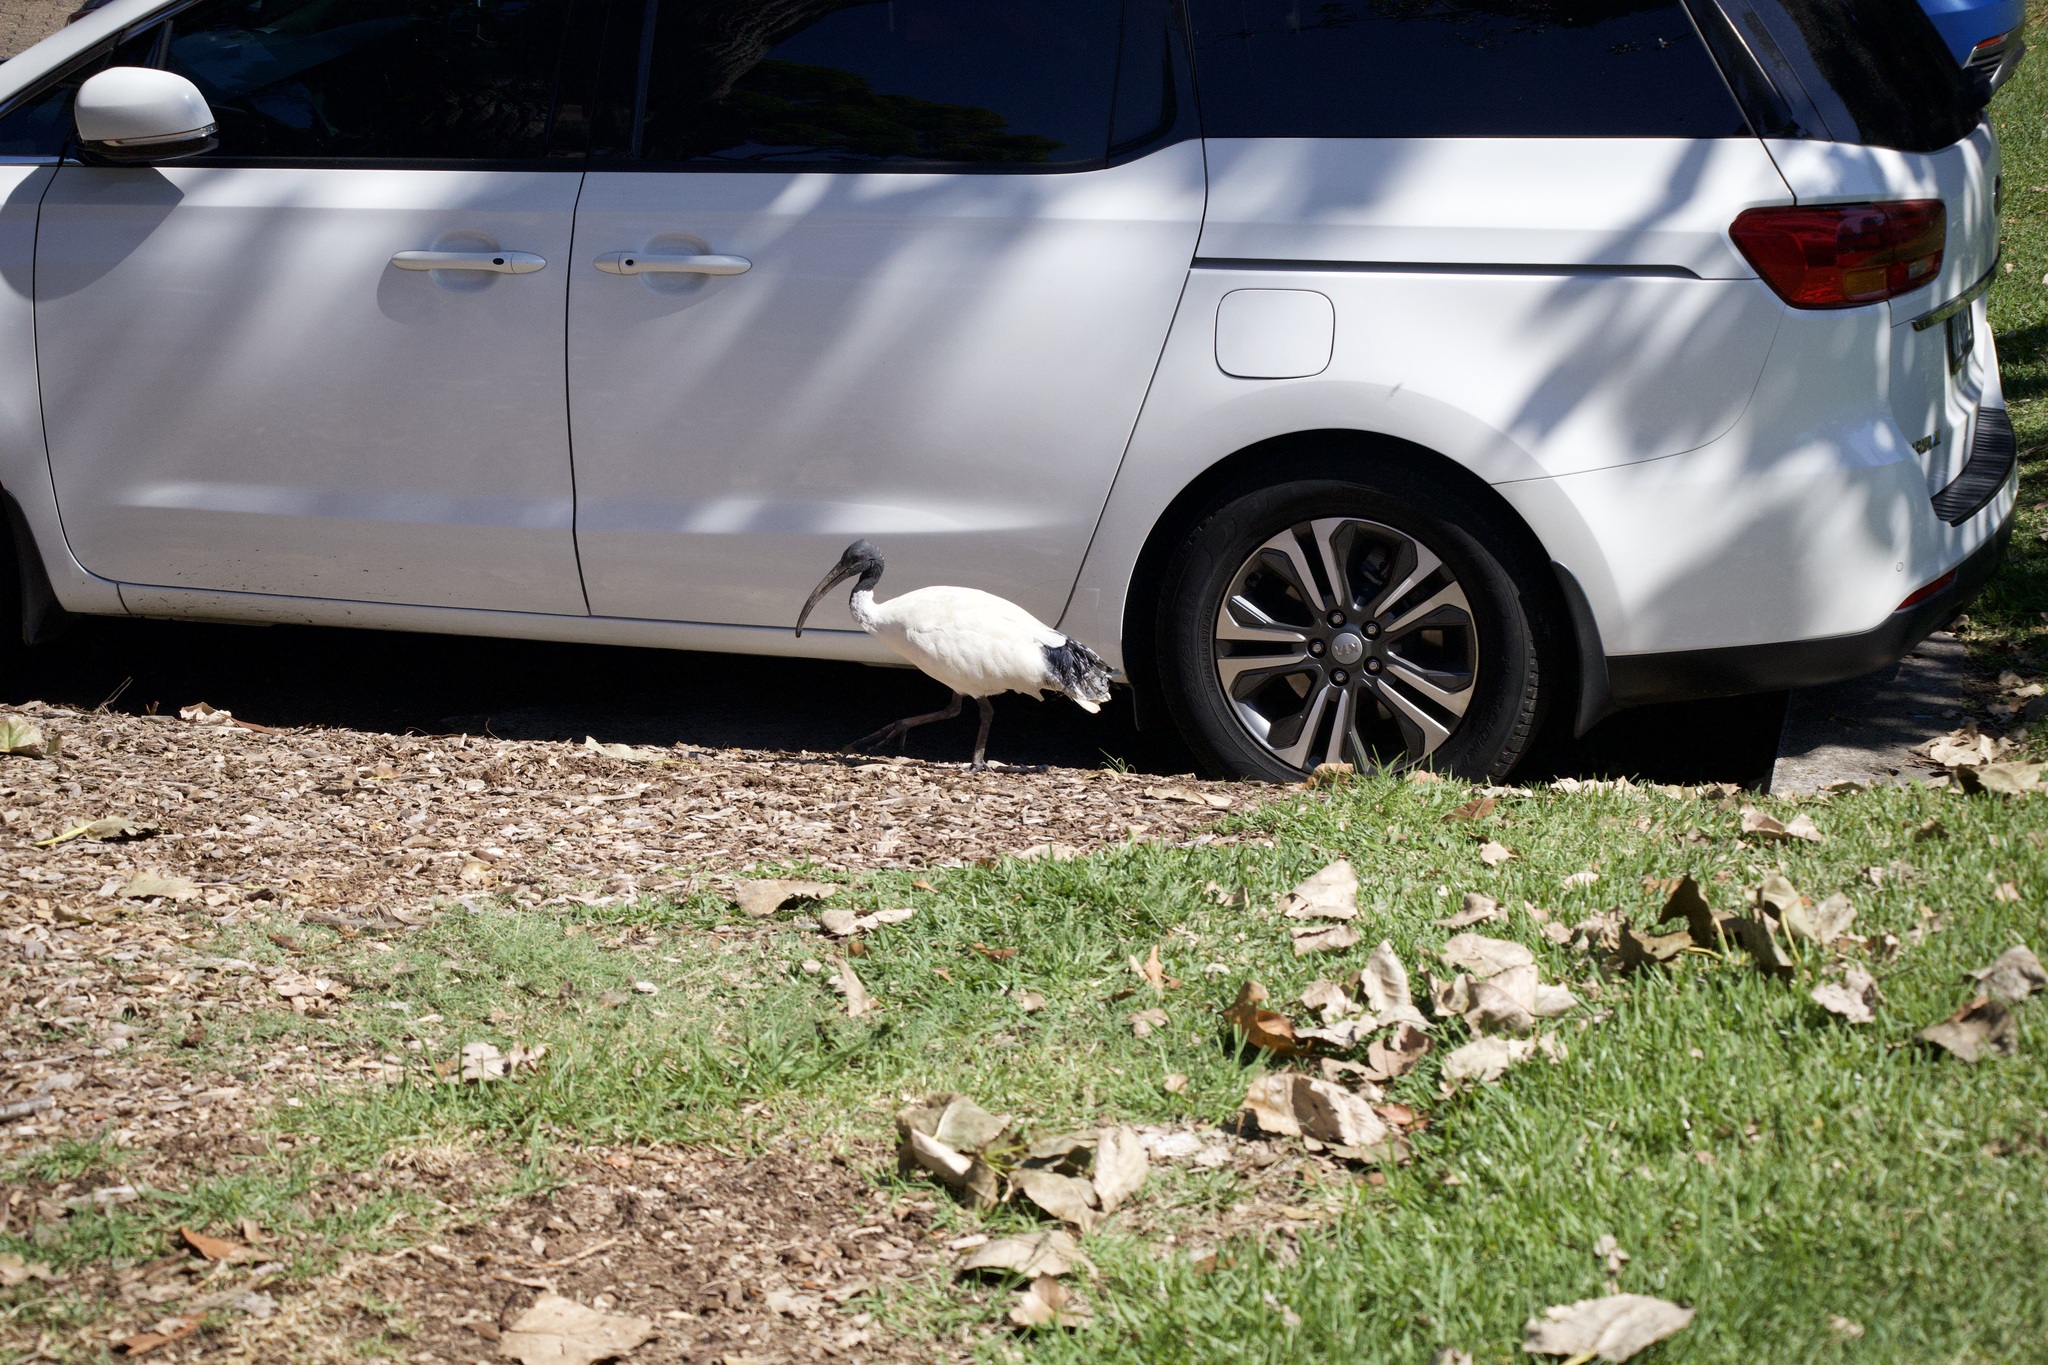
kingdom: Animalia
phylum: Chordata
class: Aves
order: Pelecaniformes
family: Threskiornithidae
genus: Threskiornis
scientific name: Threskiornis molucca
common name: Australian white ibis
